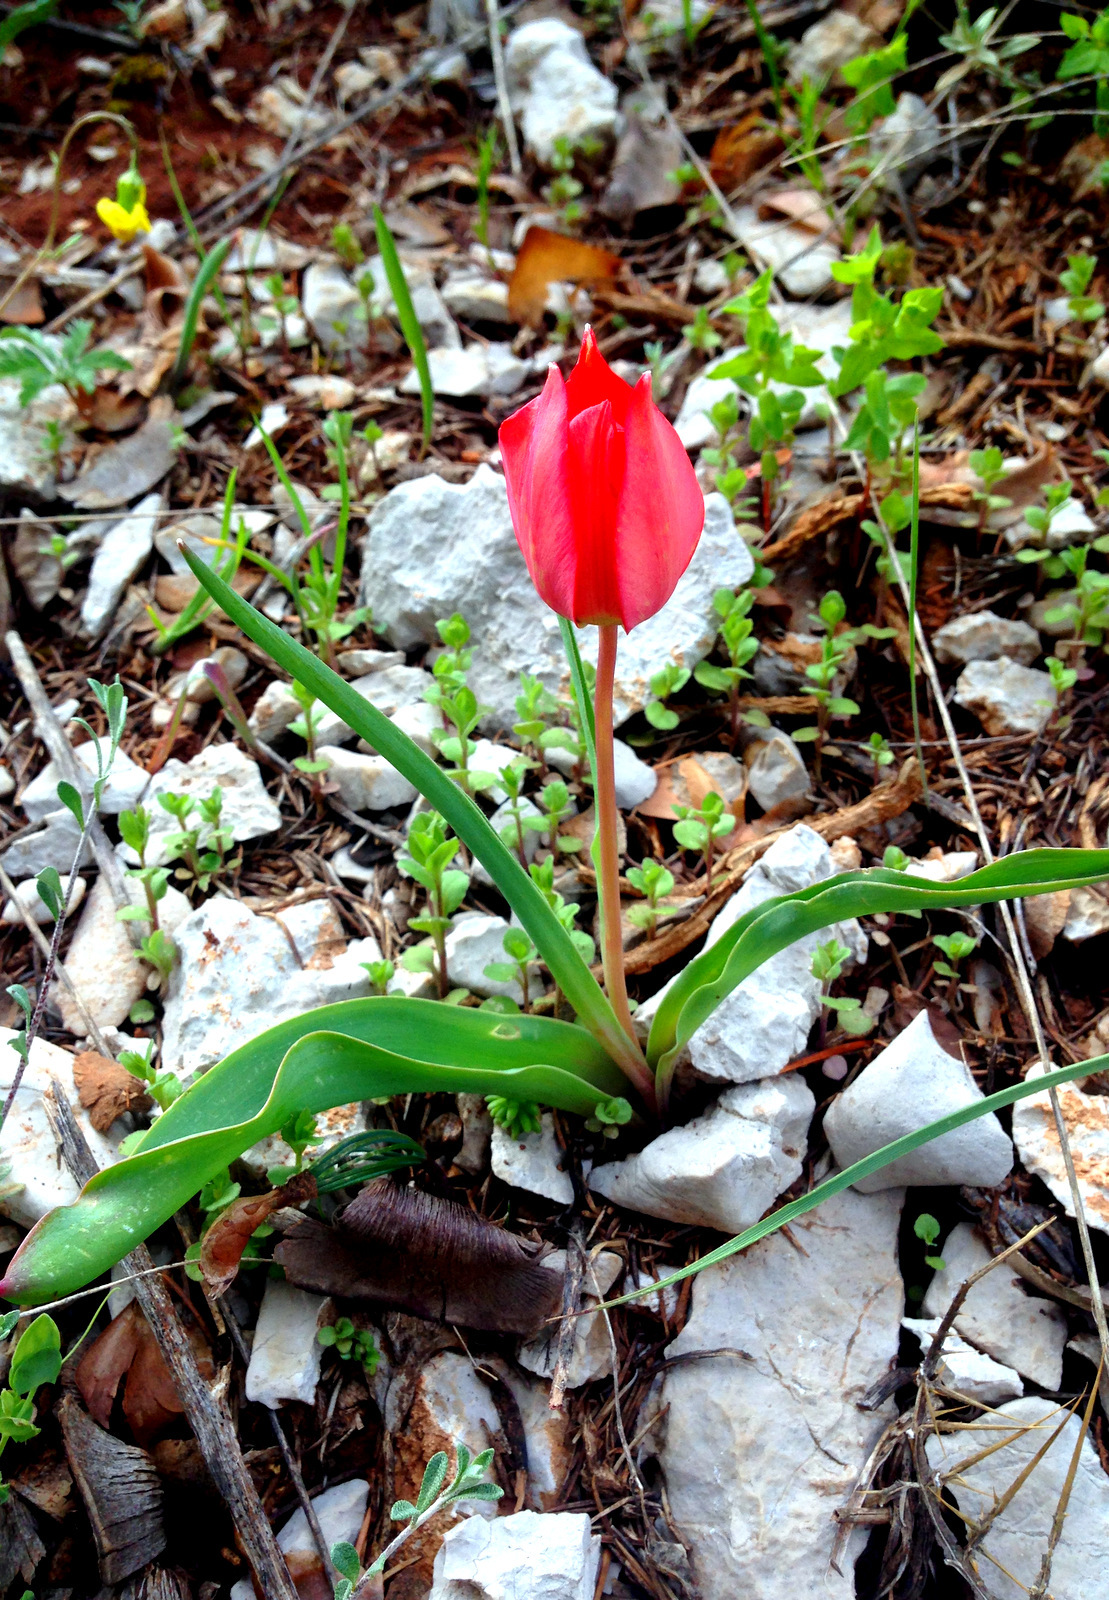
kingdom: Plantae
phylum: Tracheophyta
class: Liliopsida
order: Liliales
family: Liliaceae
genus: Tulipa
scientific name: Tulipa agenensis
